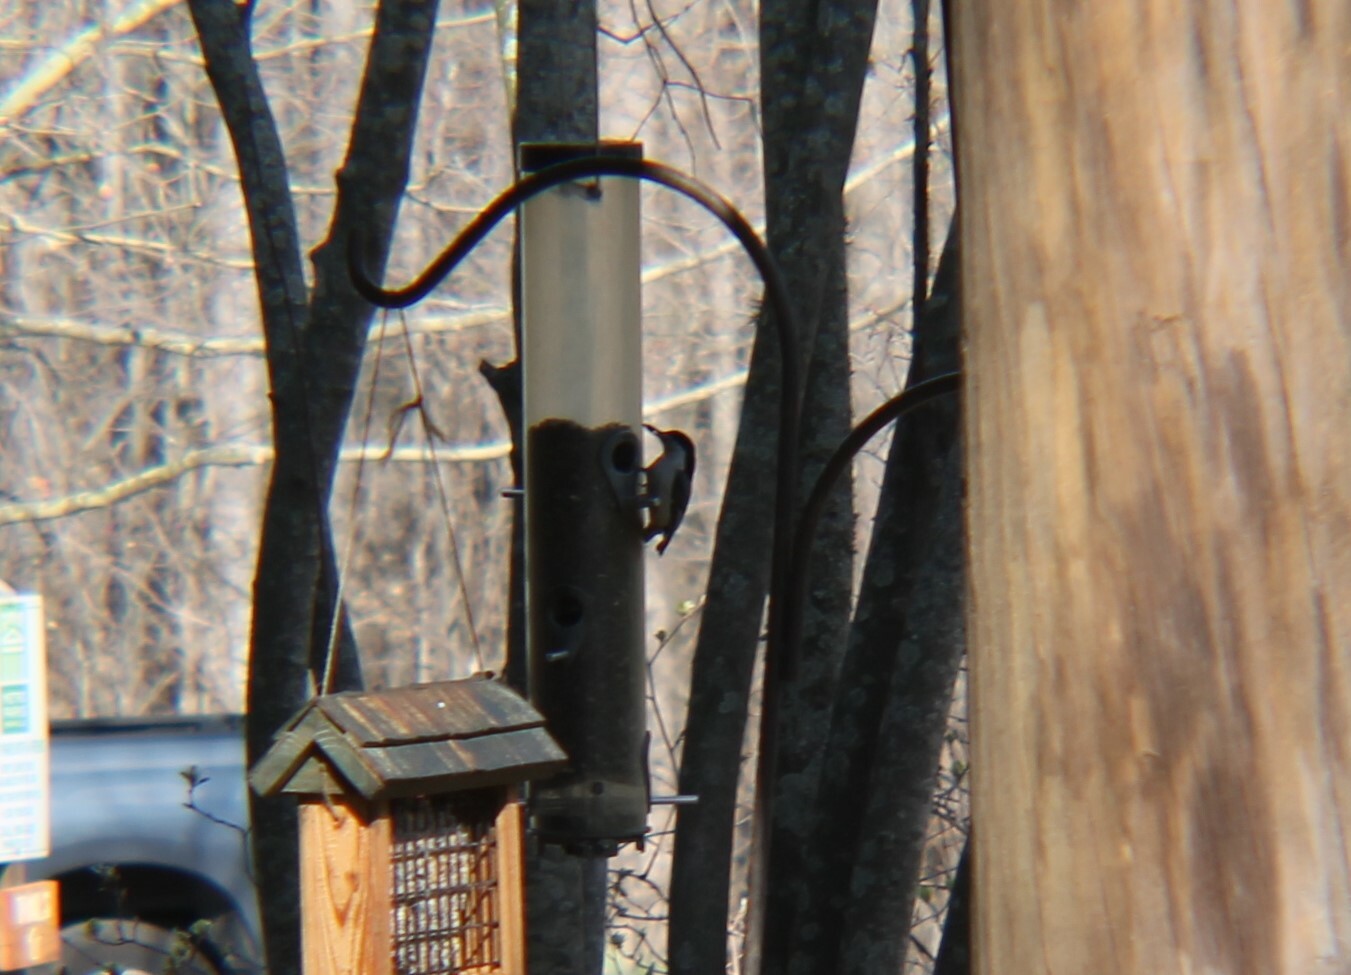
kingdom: Animalia
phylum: Chordata
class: Aves
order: Passeriformes
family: Sittidae
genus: Sitta
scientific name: Sitta carolinensis
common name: White-breasted nuthatch
